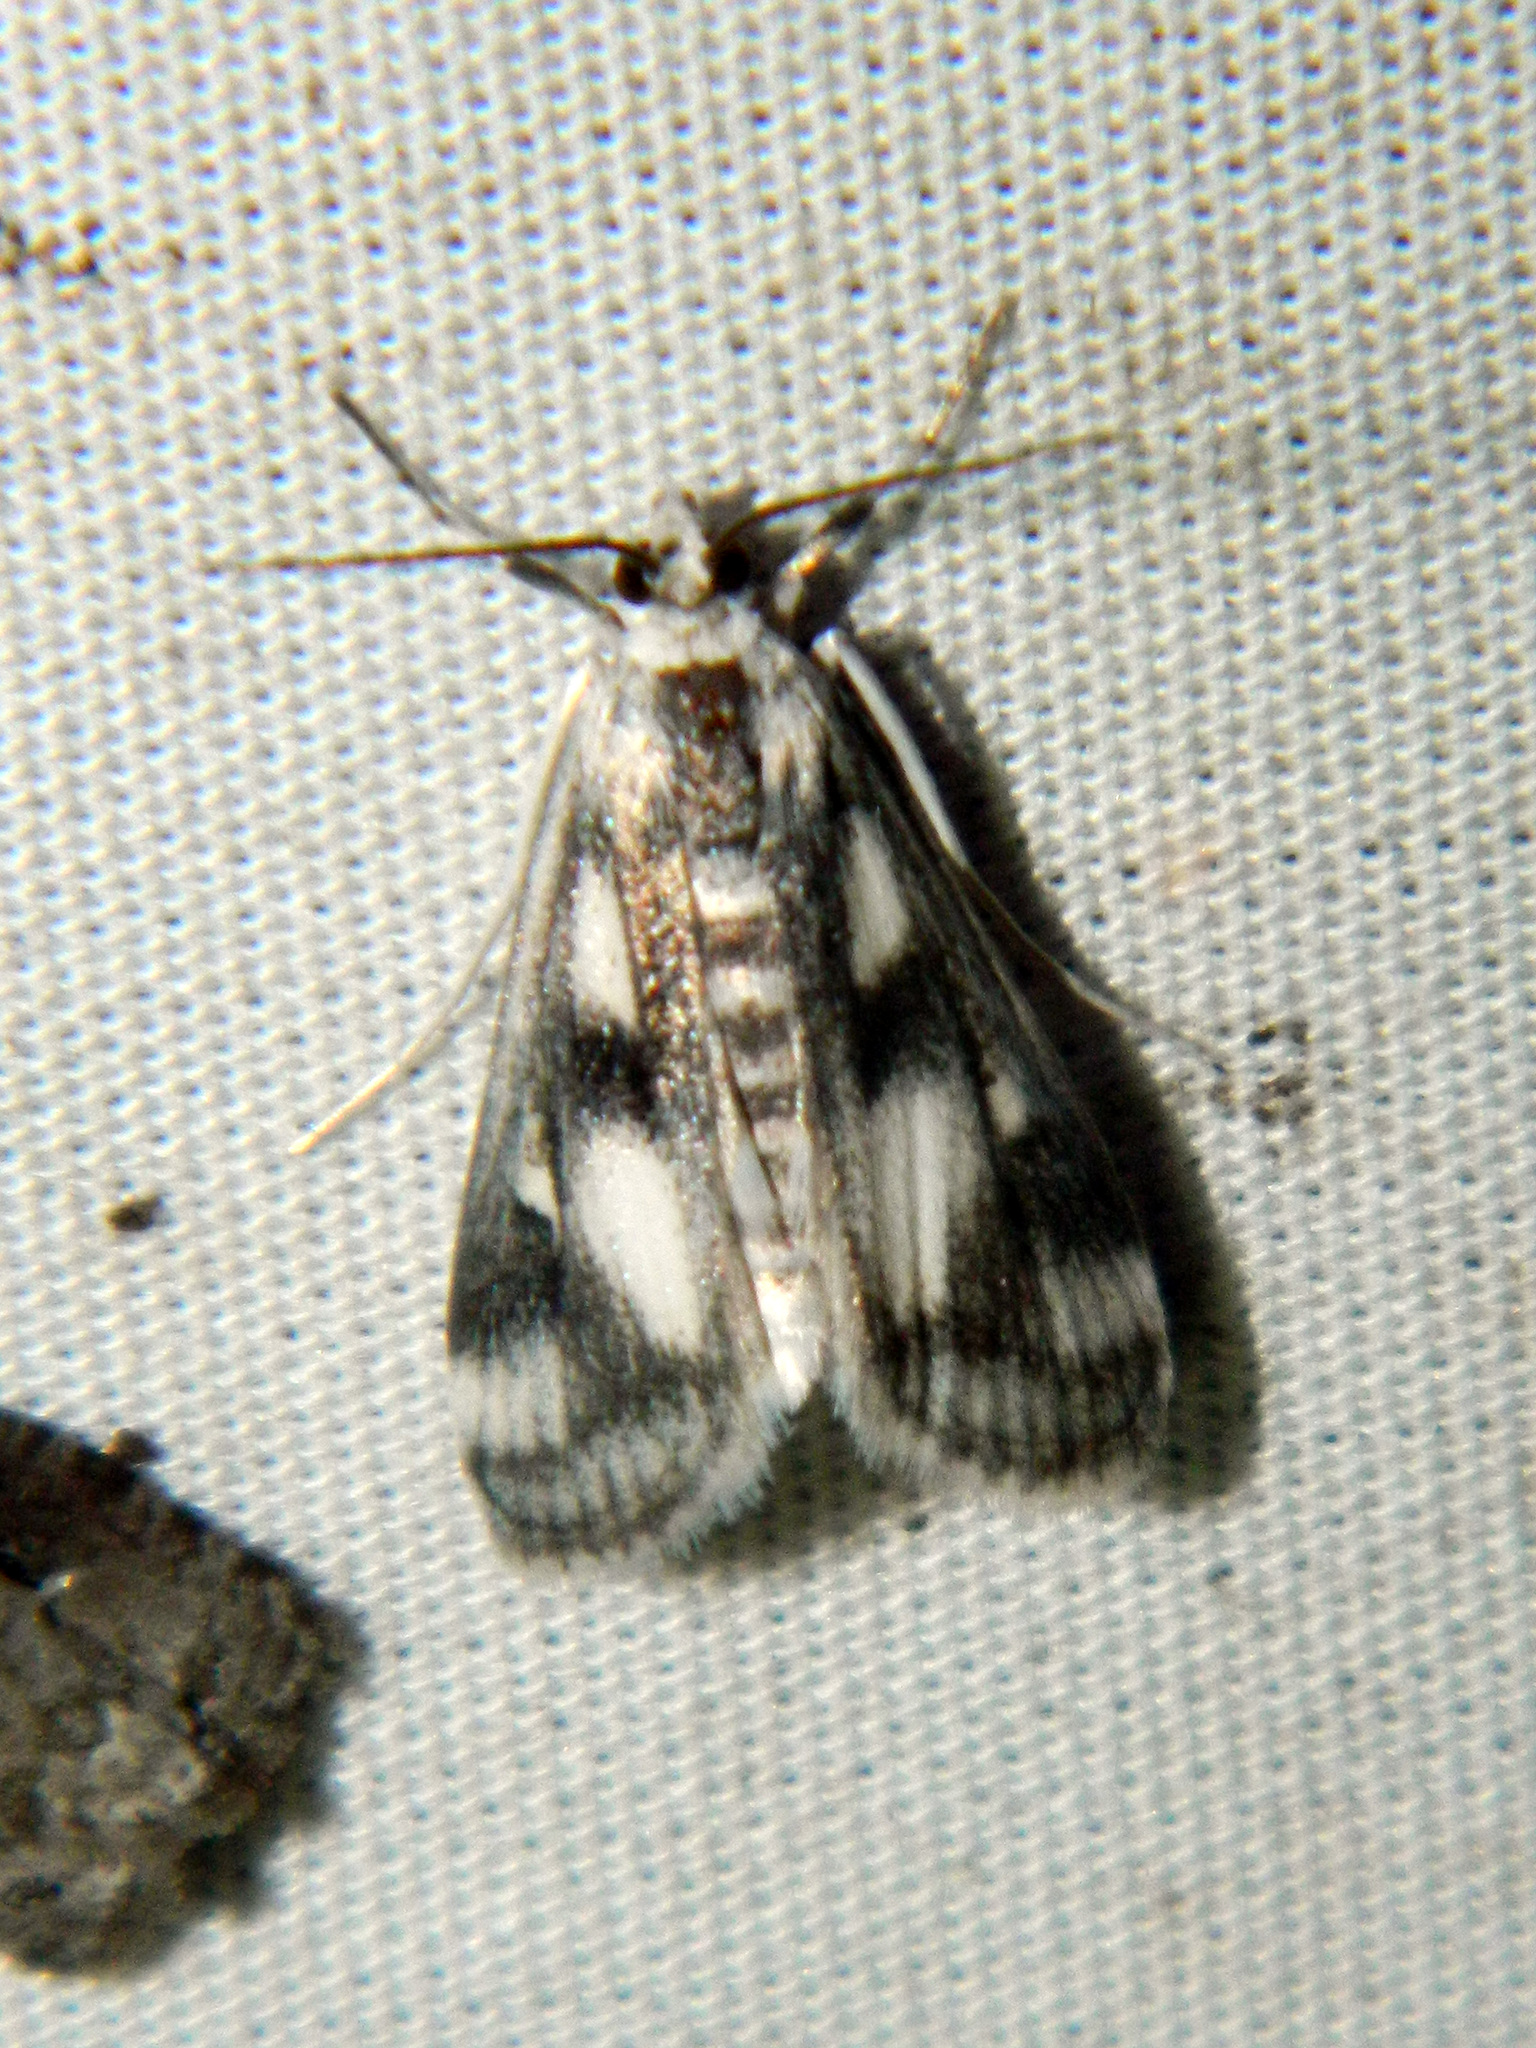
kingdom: Animalia
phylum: Arthropoda
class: Insecta
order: Lepidoptera
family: Crambidae
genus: Parapoynx
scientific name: Parapoynx maculalis
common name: Polymorphic pondweed moth
